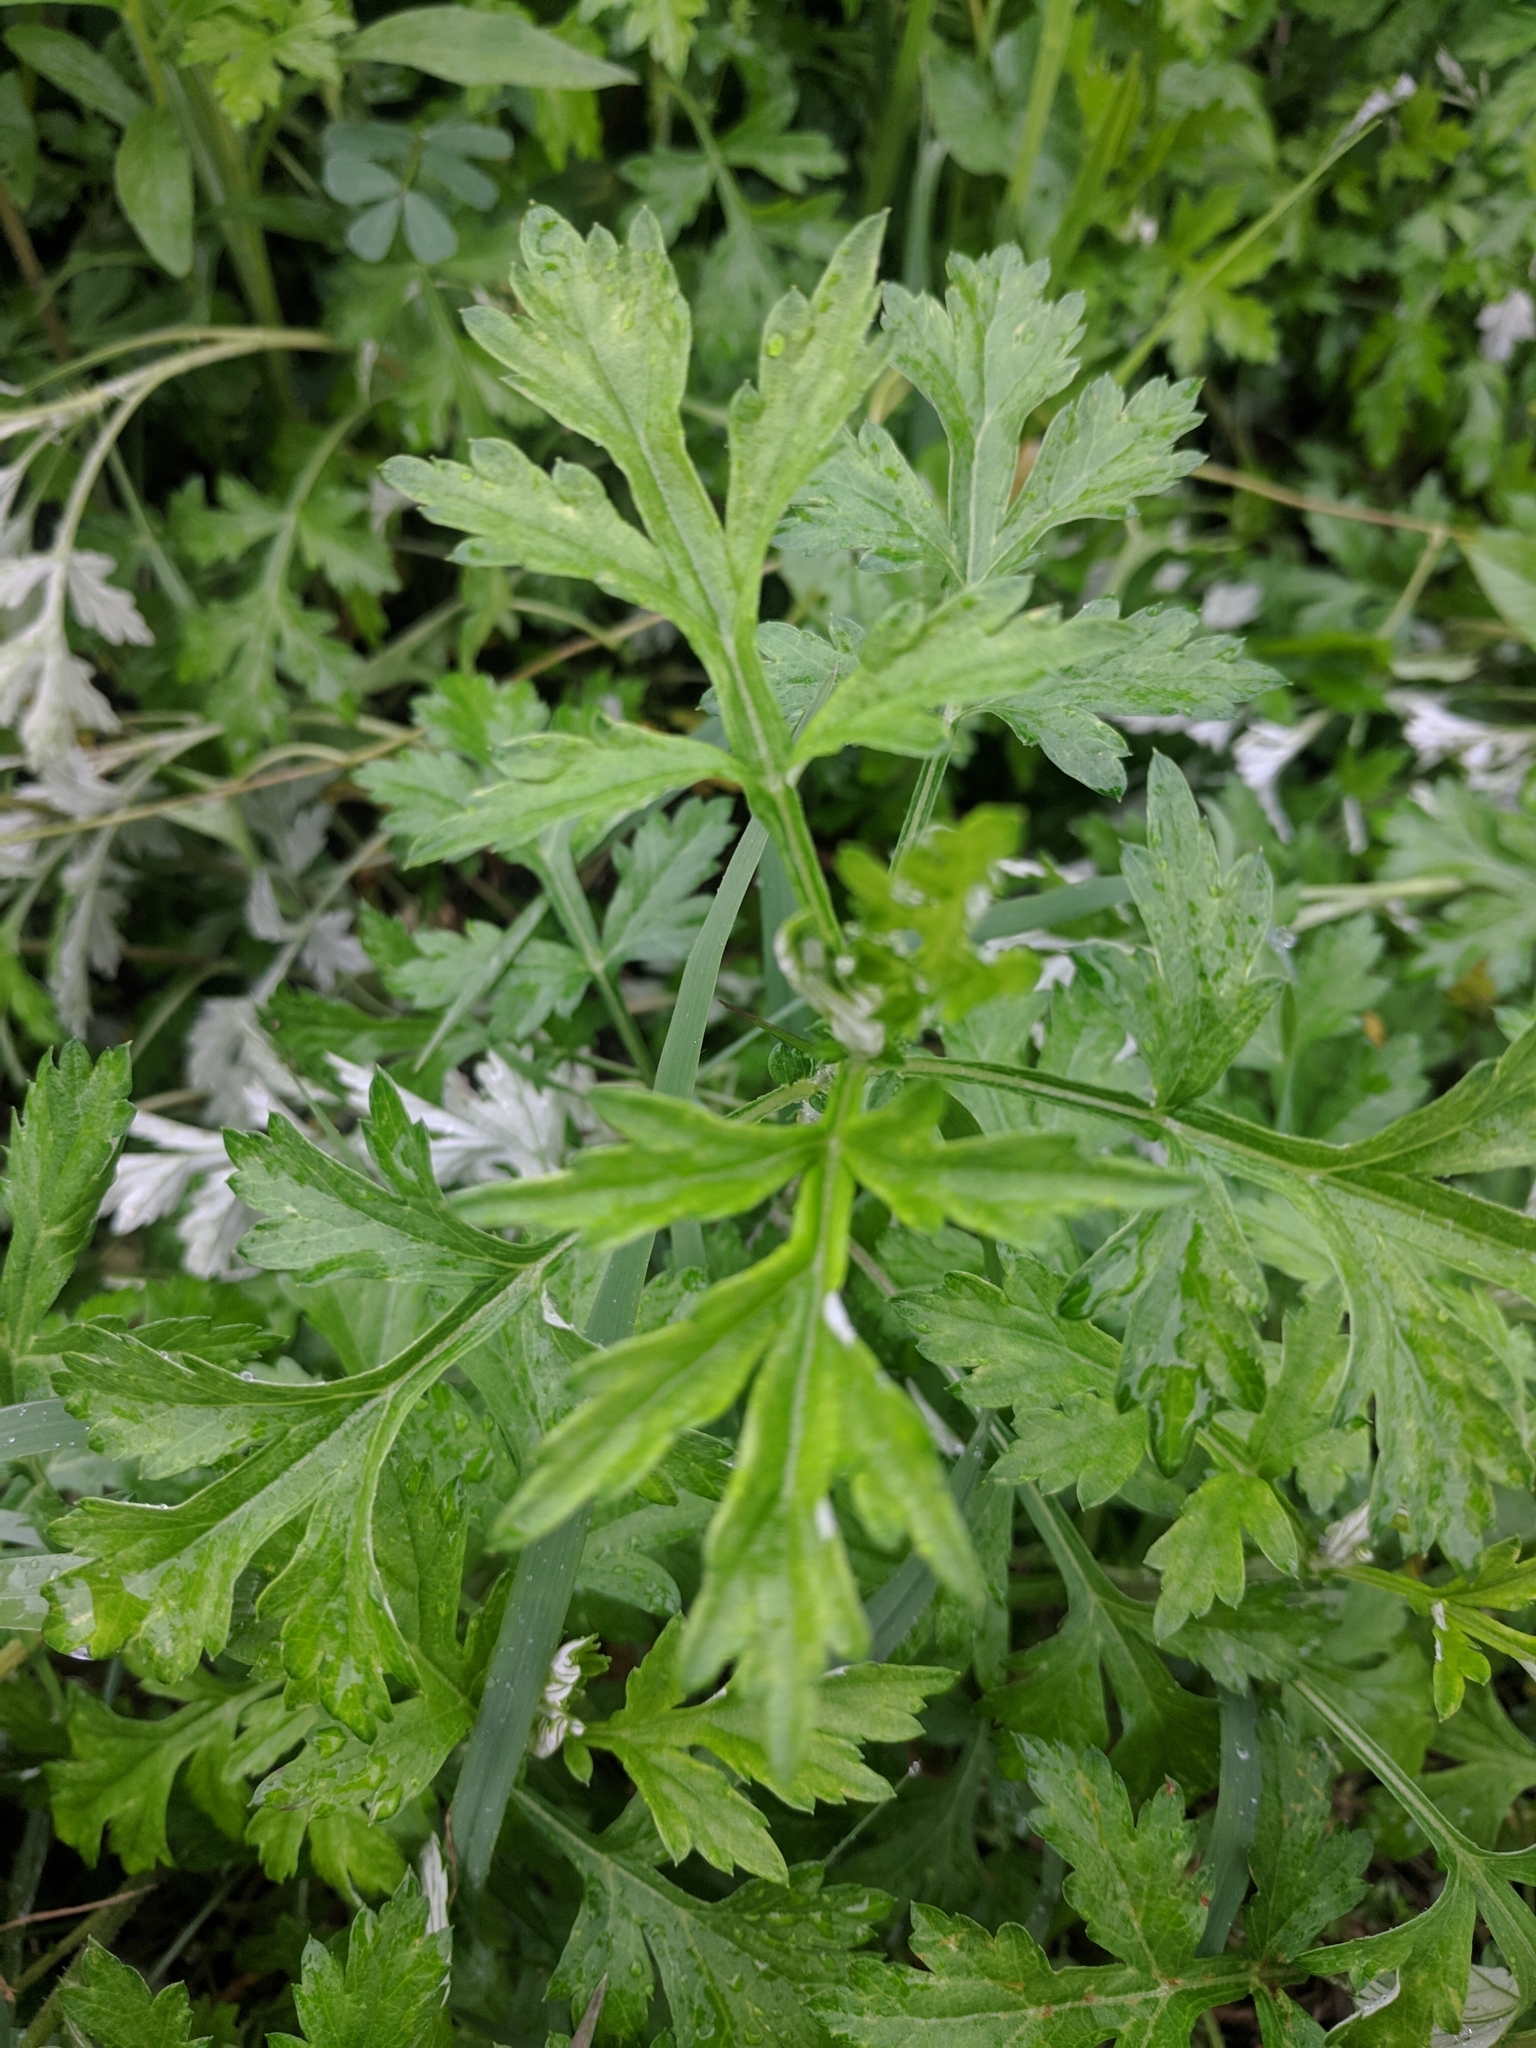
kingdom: Plantae
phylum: Tracheophyta
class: Magnoliopsida
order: Asterales
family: Asteraceae
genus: Artemisia
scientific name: Artemisia vulgaris
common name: Mugwort
